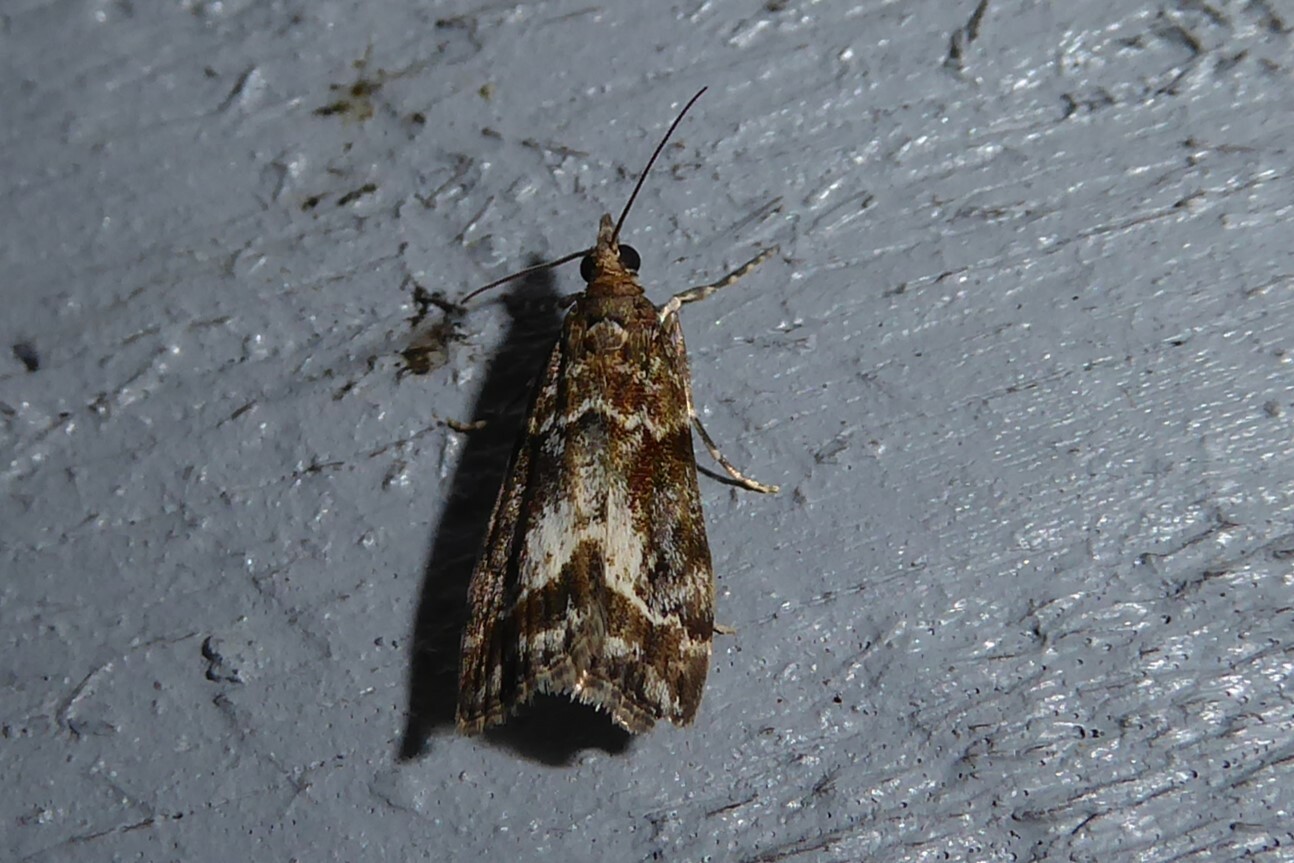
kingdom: Animalia
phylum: Arthropoda
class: Insecta
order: Lepidoptera
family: Crambidae
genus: Eudonia
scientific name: Eudonia legnota
